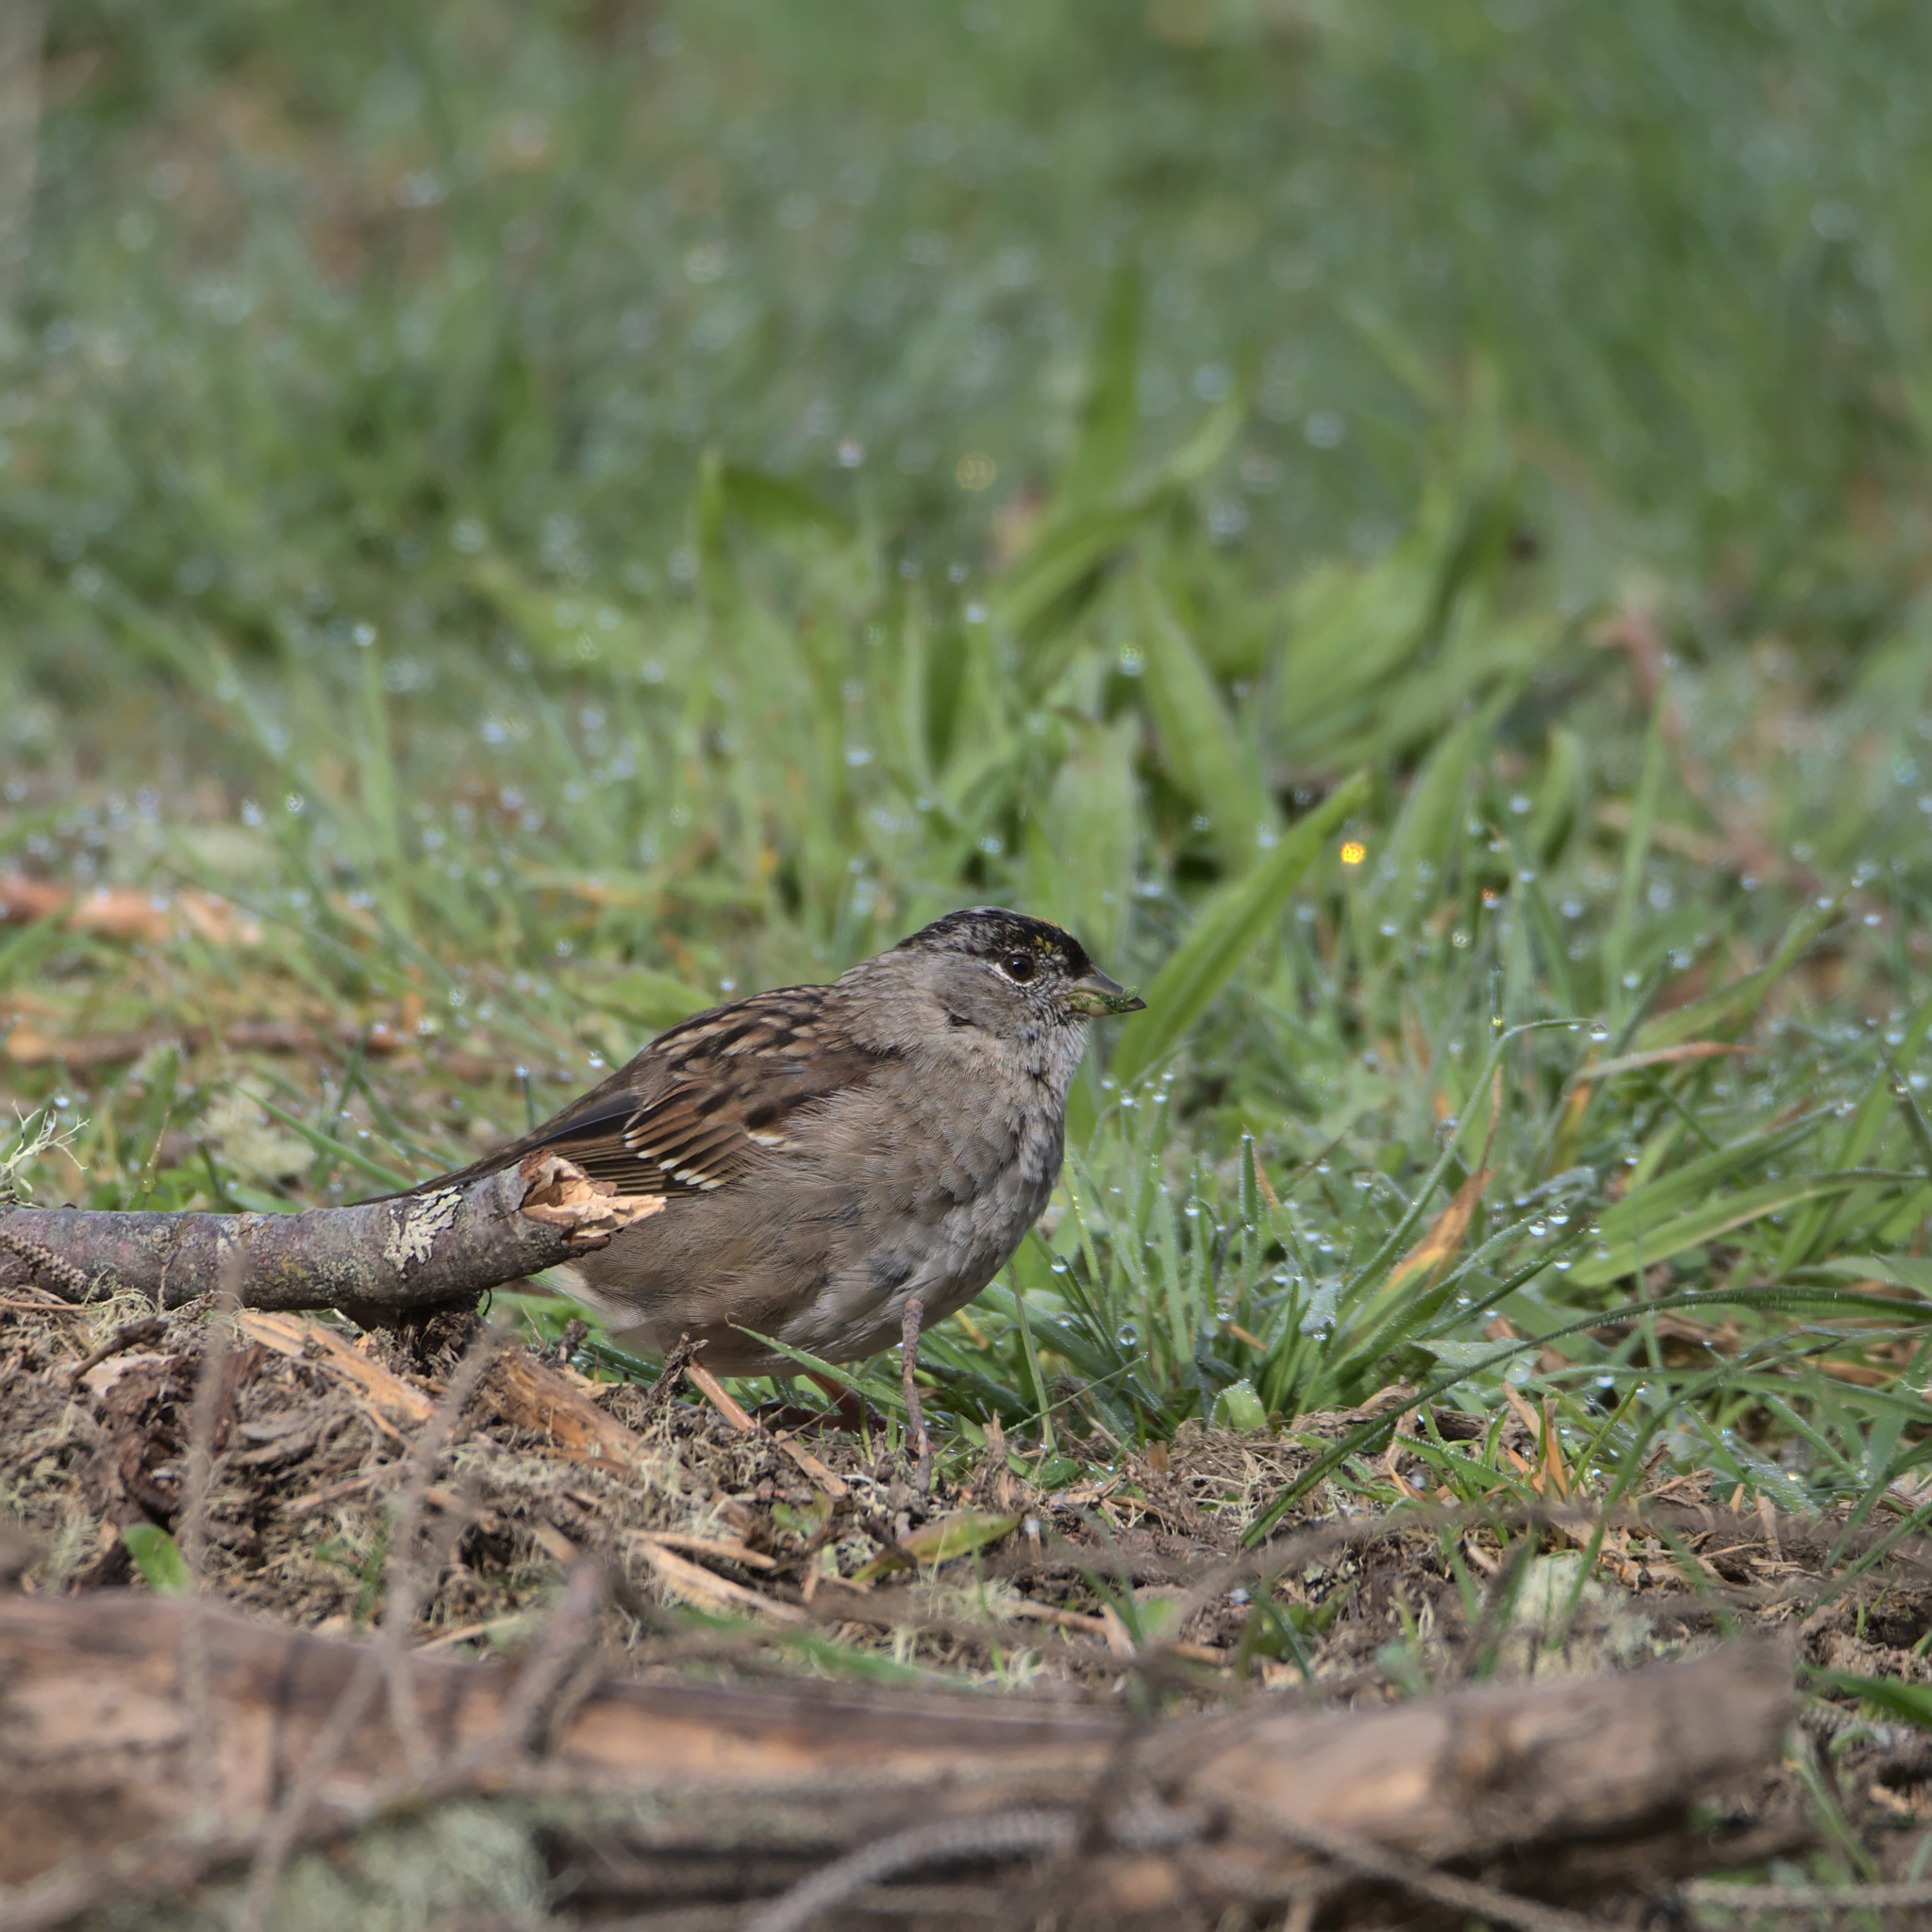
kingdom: Animalia
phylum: Chordata
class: Aves
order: Passeriformes
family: Passerellidae
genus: Zonotrichia
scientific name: Zonotrichia atricapilla
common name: Golden-crowned sparrow
